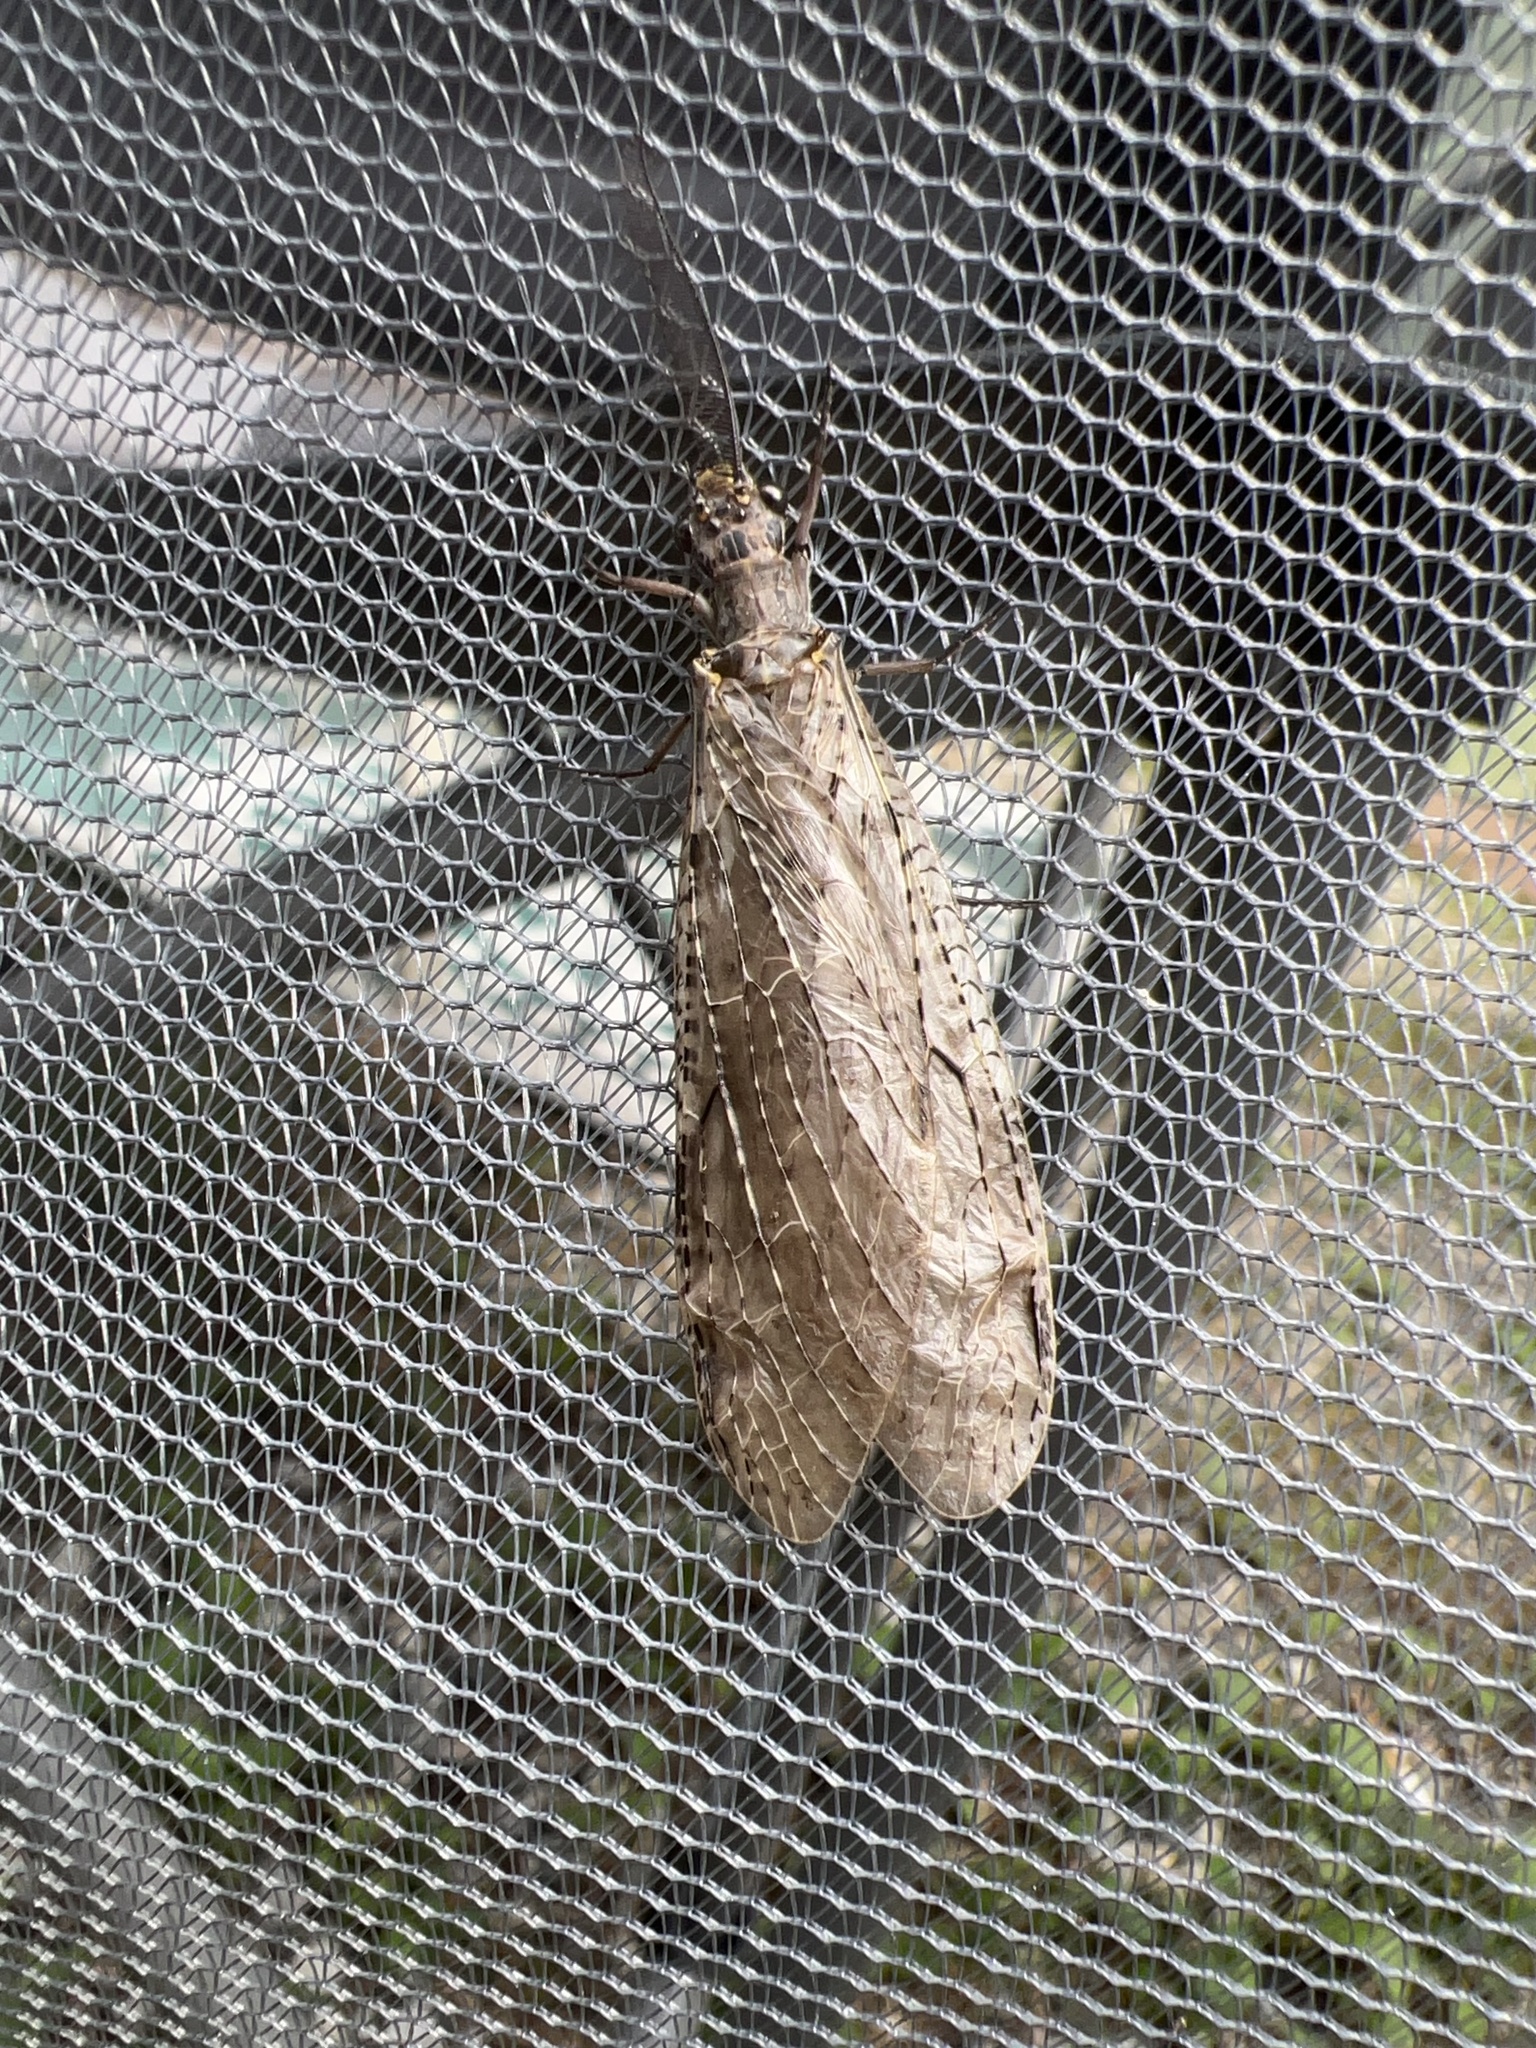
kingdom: Animalia
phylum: Arthropoda
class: Insecta
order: Megaloptera
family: Corydalidae
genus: Chauliodes
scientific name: Chauliodes rastricornis
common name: Spring fishfly
